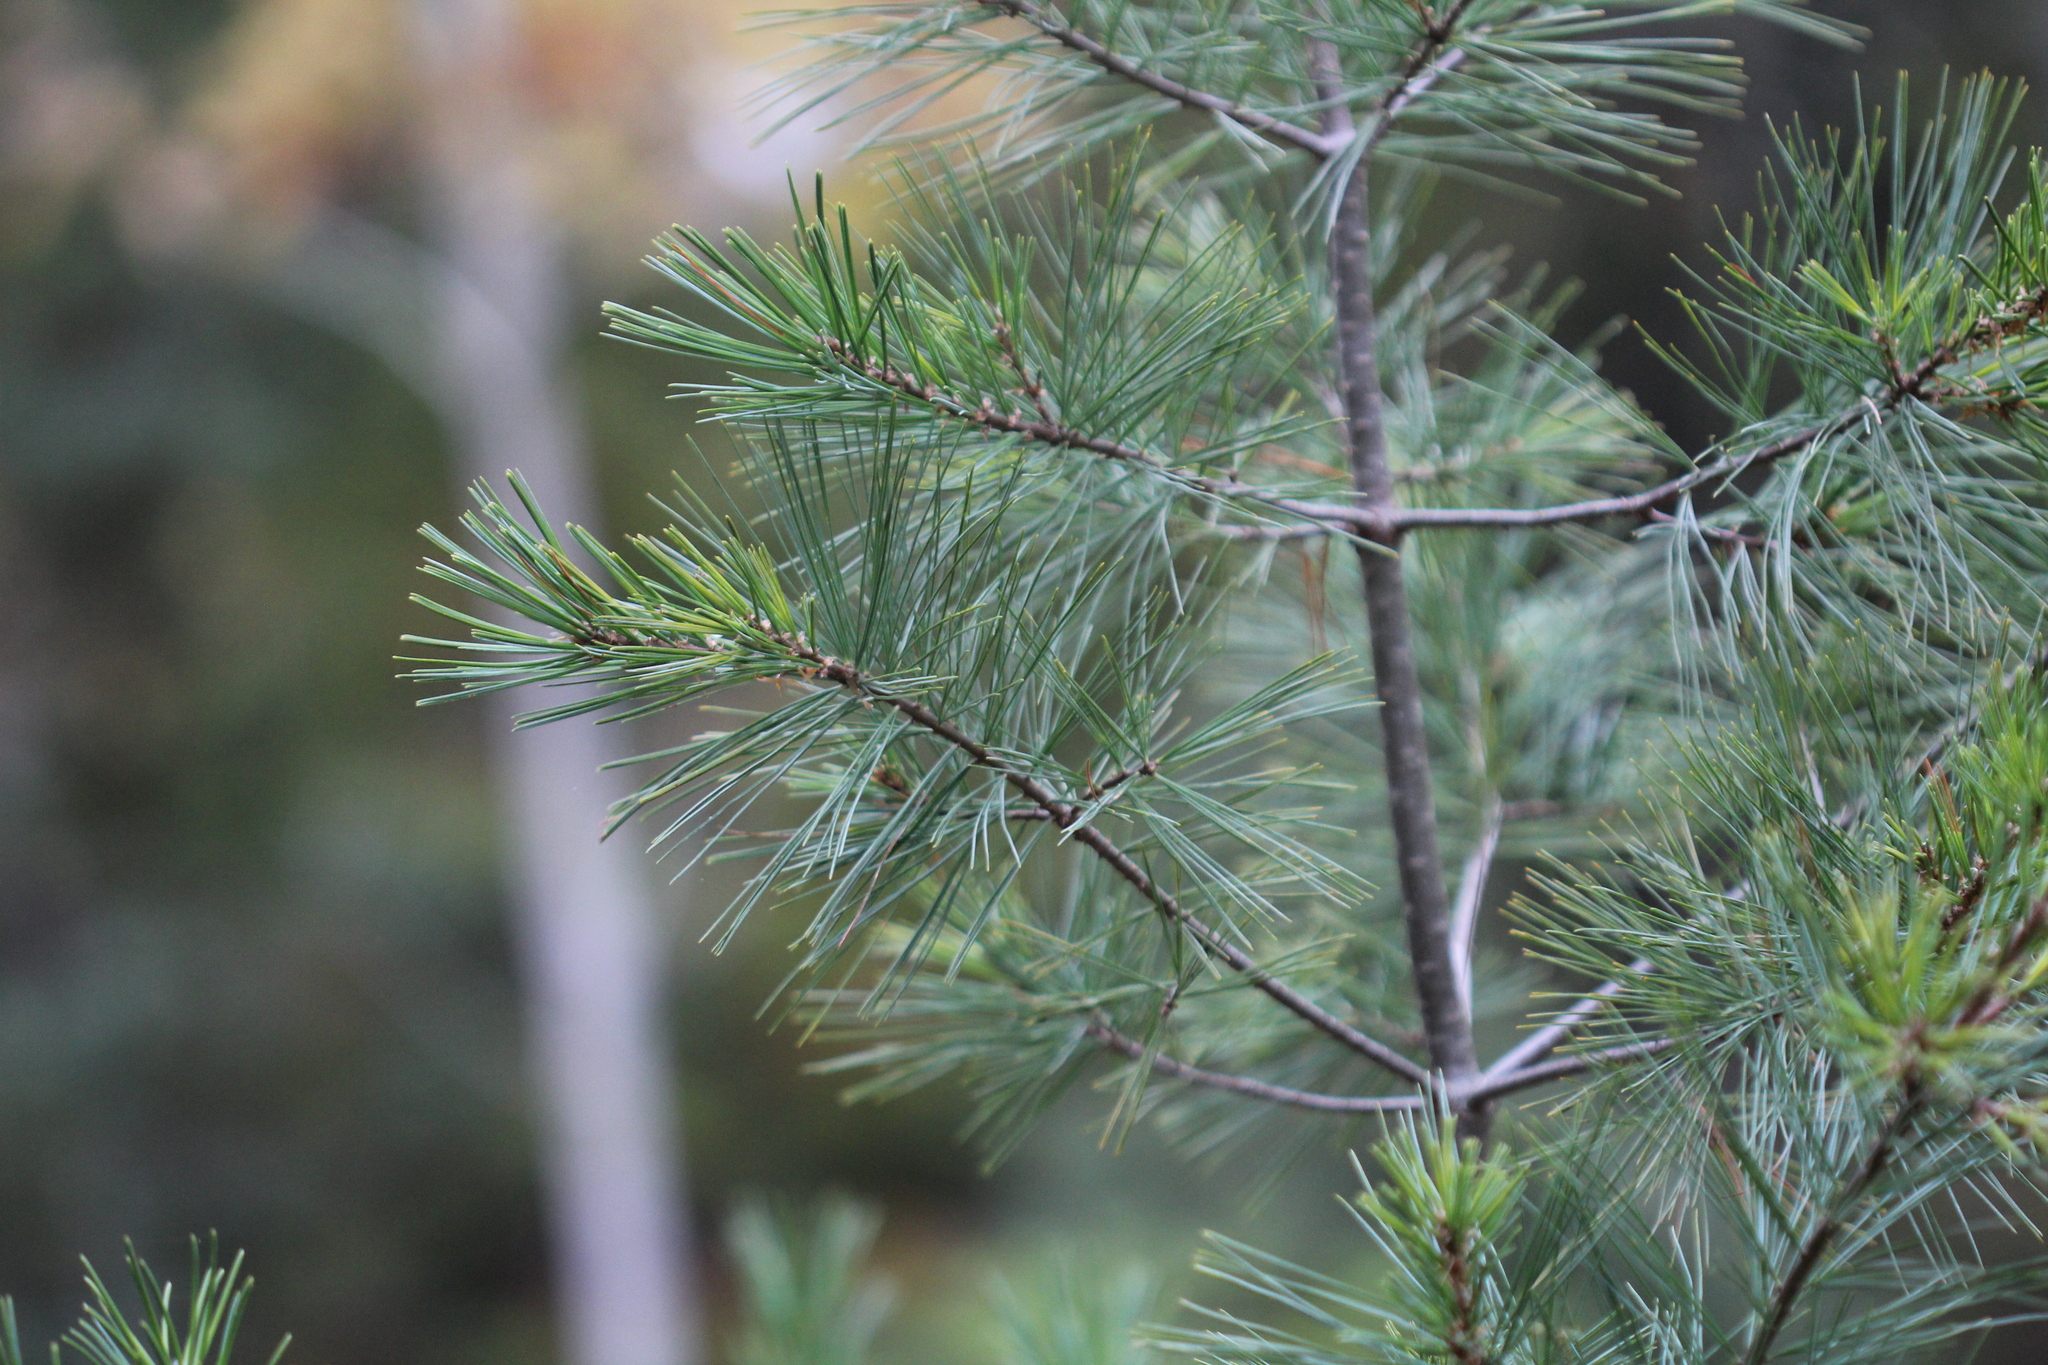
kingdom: Plantae
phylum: Tracheophyta
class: Pinopsida
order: Pinales
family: Pinaceae
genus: Pinus
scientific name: Pinus strobus
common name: Weymouth pine
